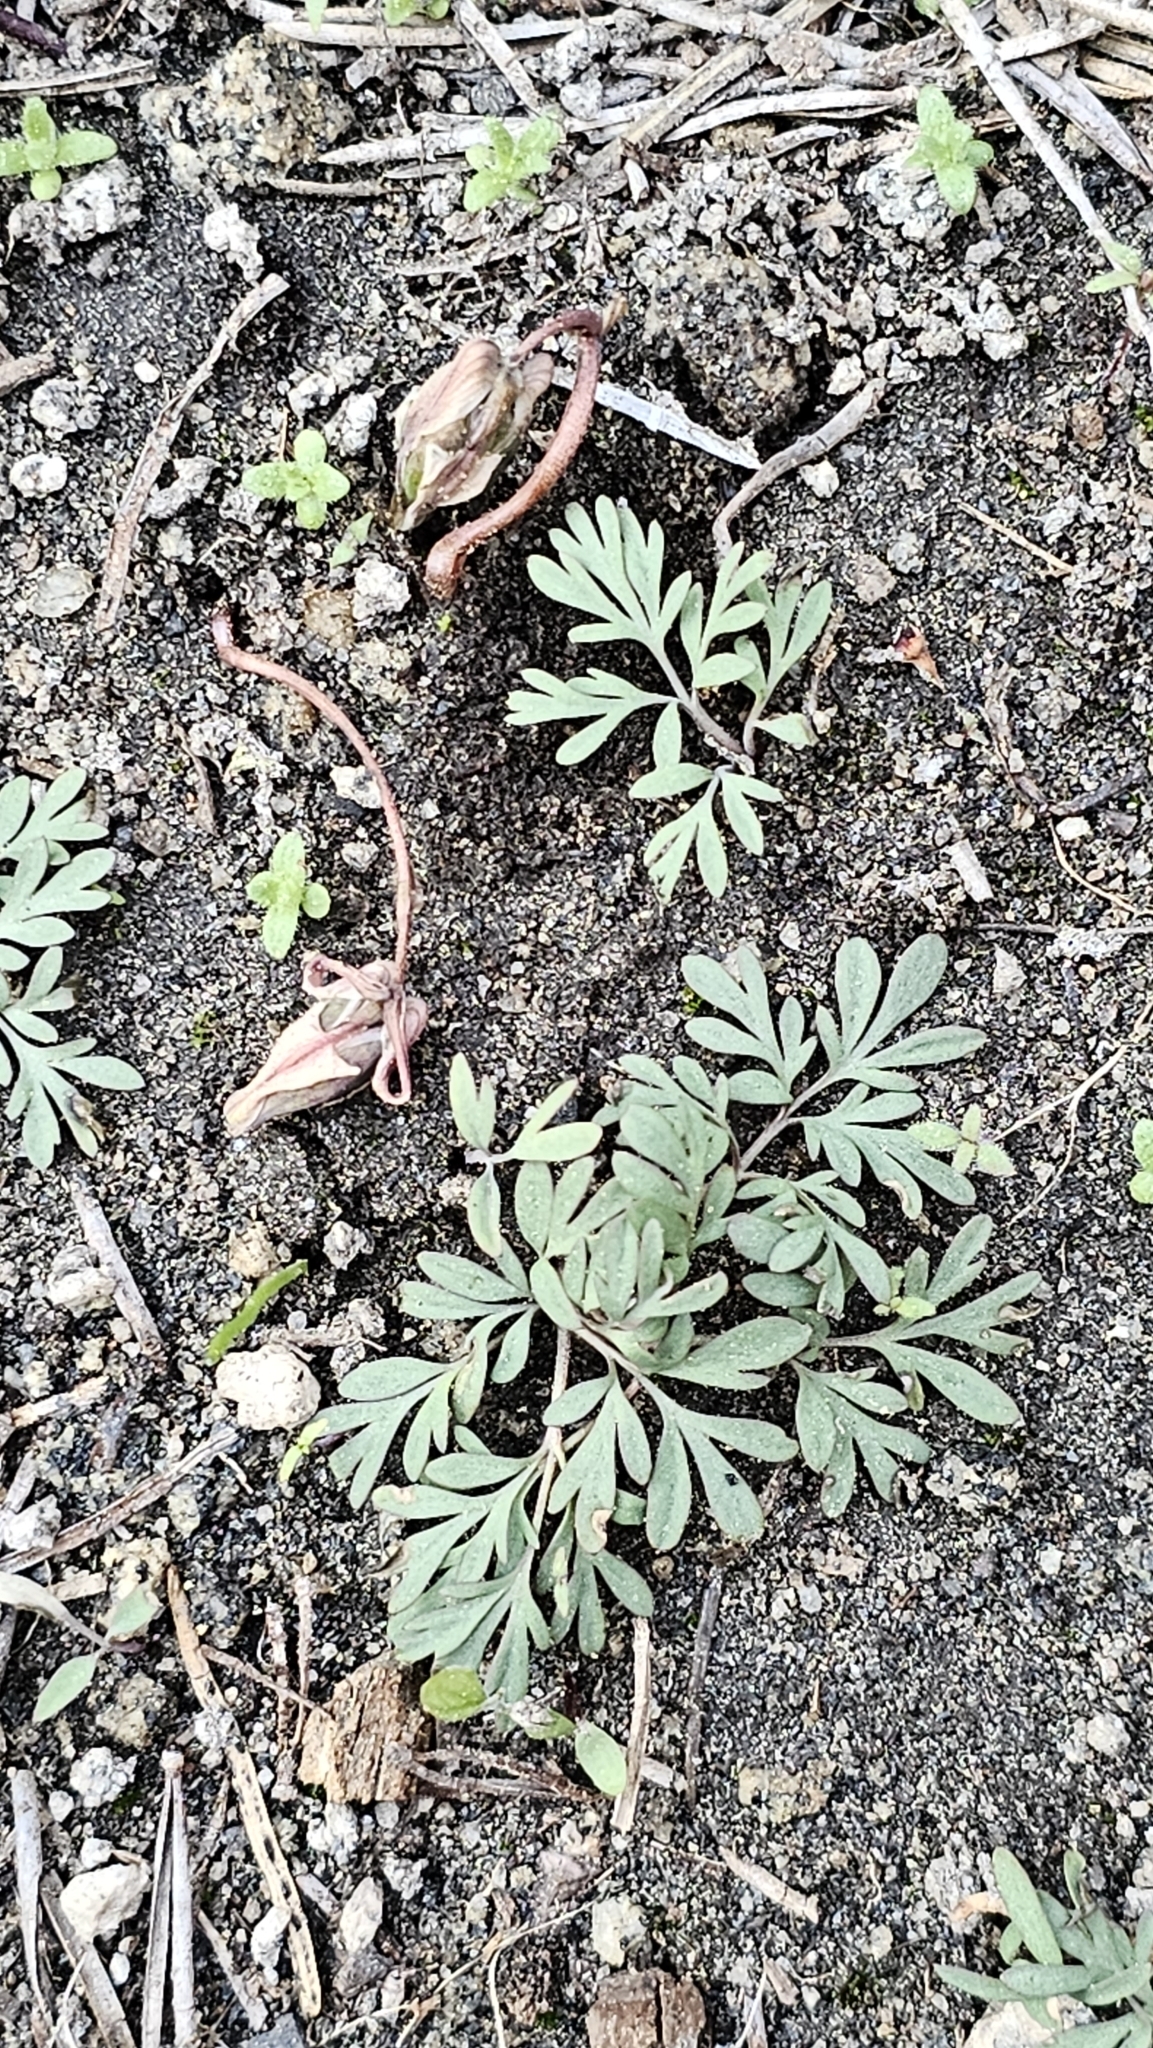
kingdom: Plantae
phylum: Tracheophyta
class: Magnoliopsida
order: Ranunculales
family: Papaveraceae
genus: Dicentra
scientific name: Dicentra uniflora
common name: Steer's-head
